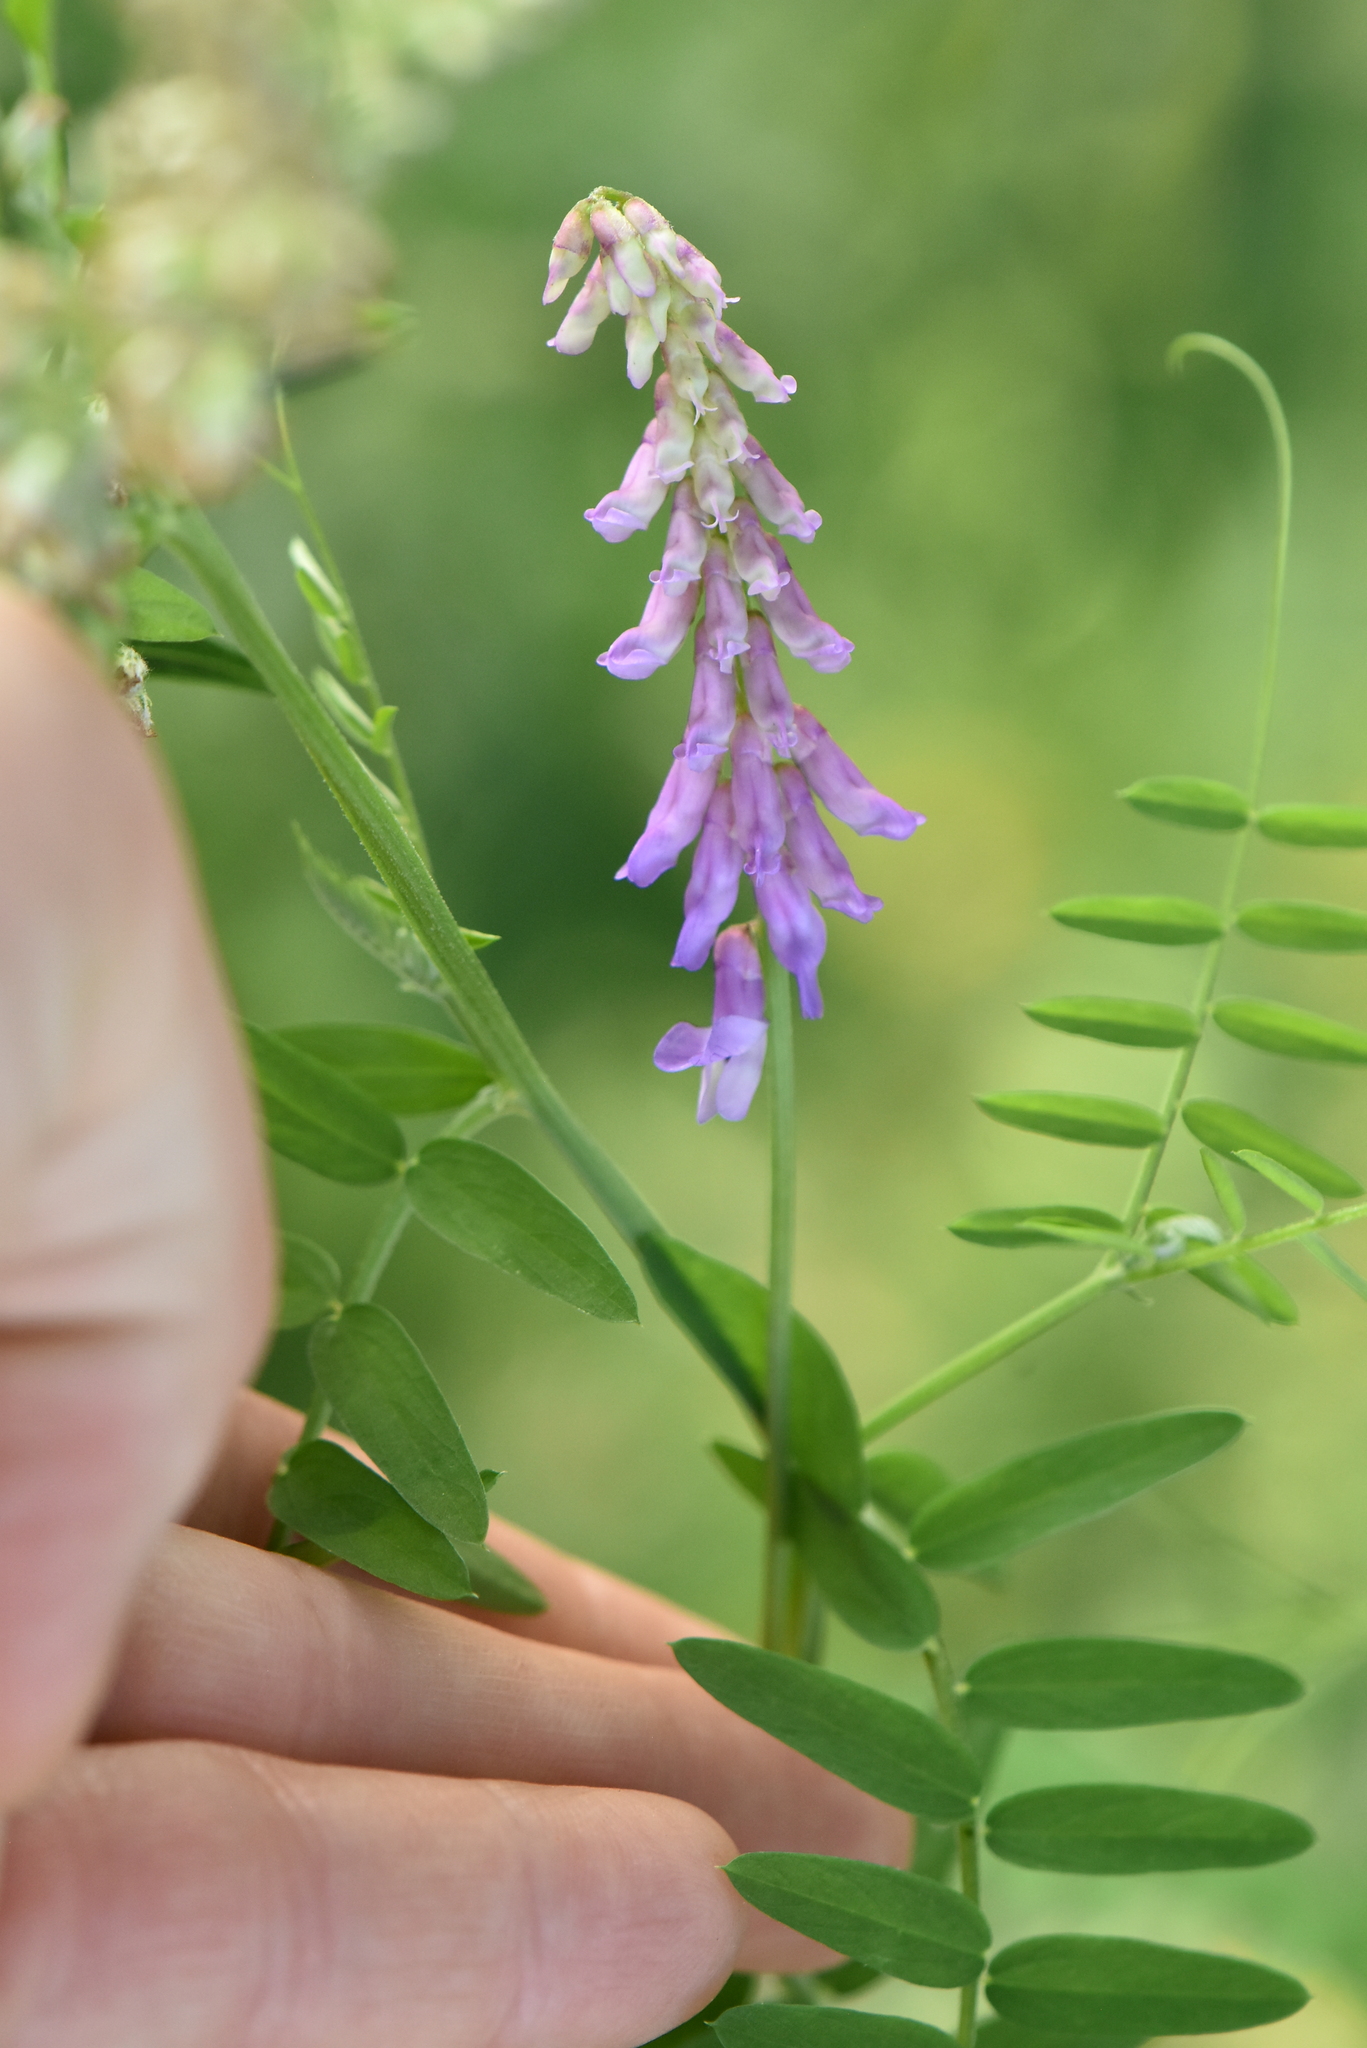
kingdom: Plantae
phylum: Tracheophyta
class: Magnoliopsida
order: Fabales
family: Fabaceae
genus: Vicia
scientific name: Vicia cracca
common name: Bird vetch
